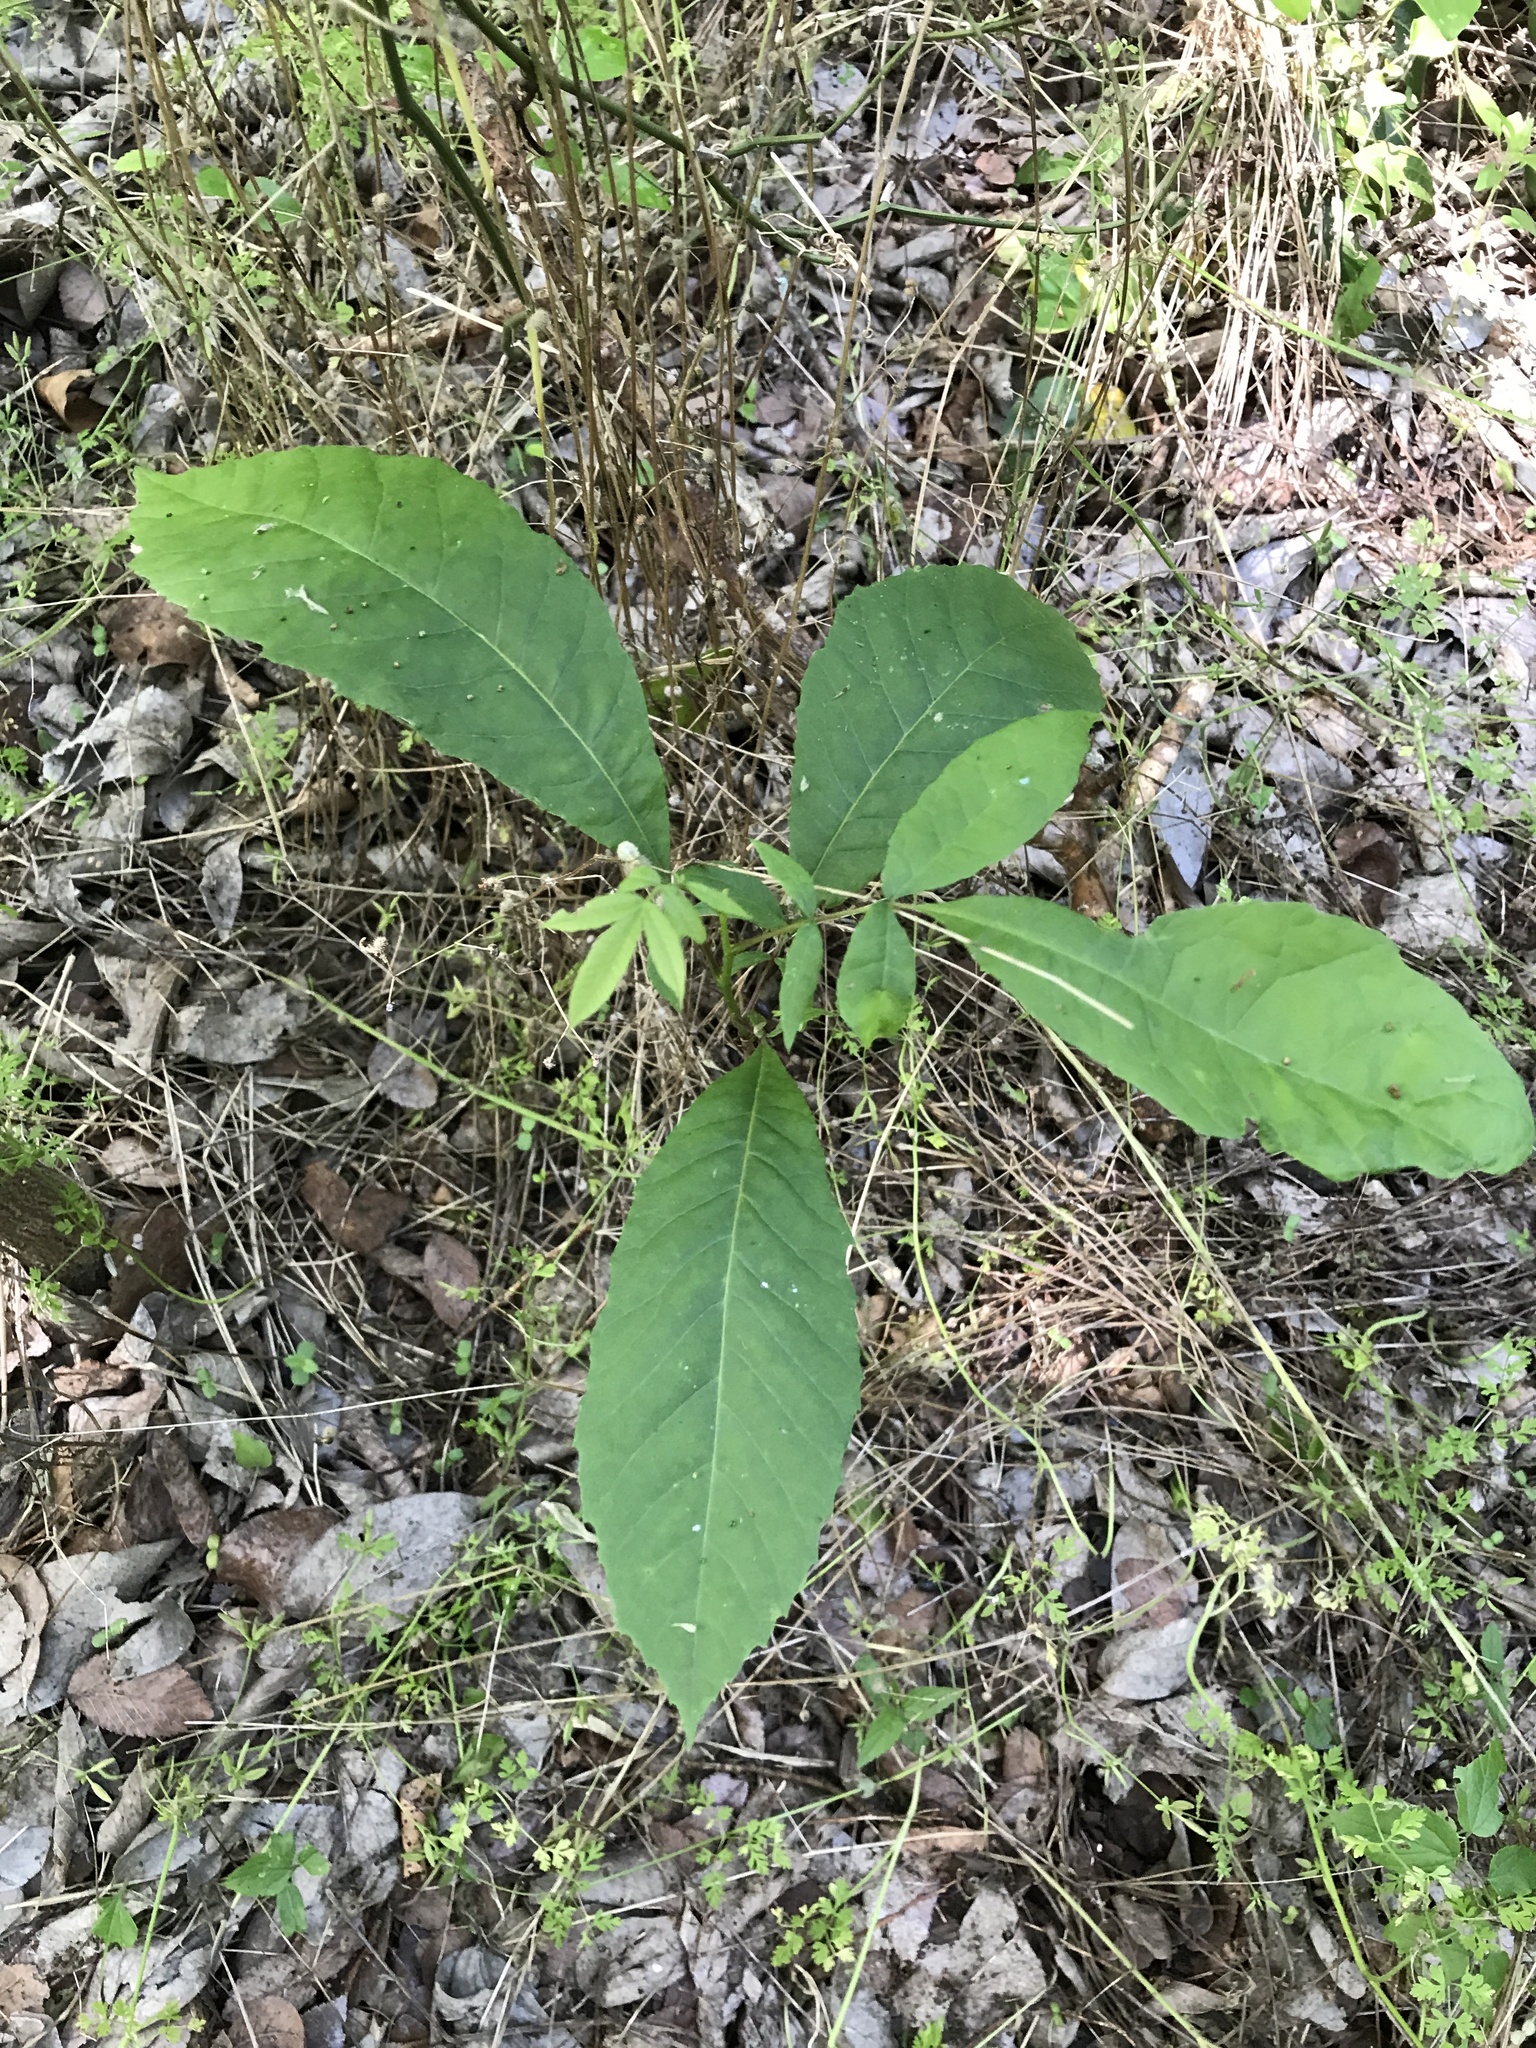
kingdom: Plantae
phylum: Tracheophyta
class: Magnoliopsida
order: Fagales
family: Juglandaceae
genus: Carya
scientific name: Carya illinoinensis
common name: Pecan
